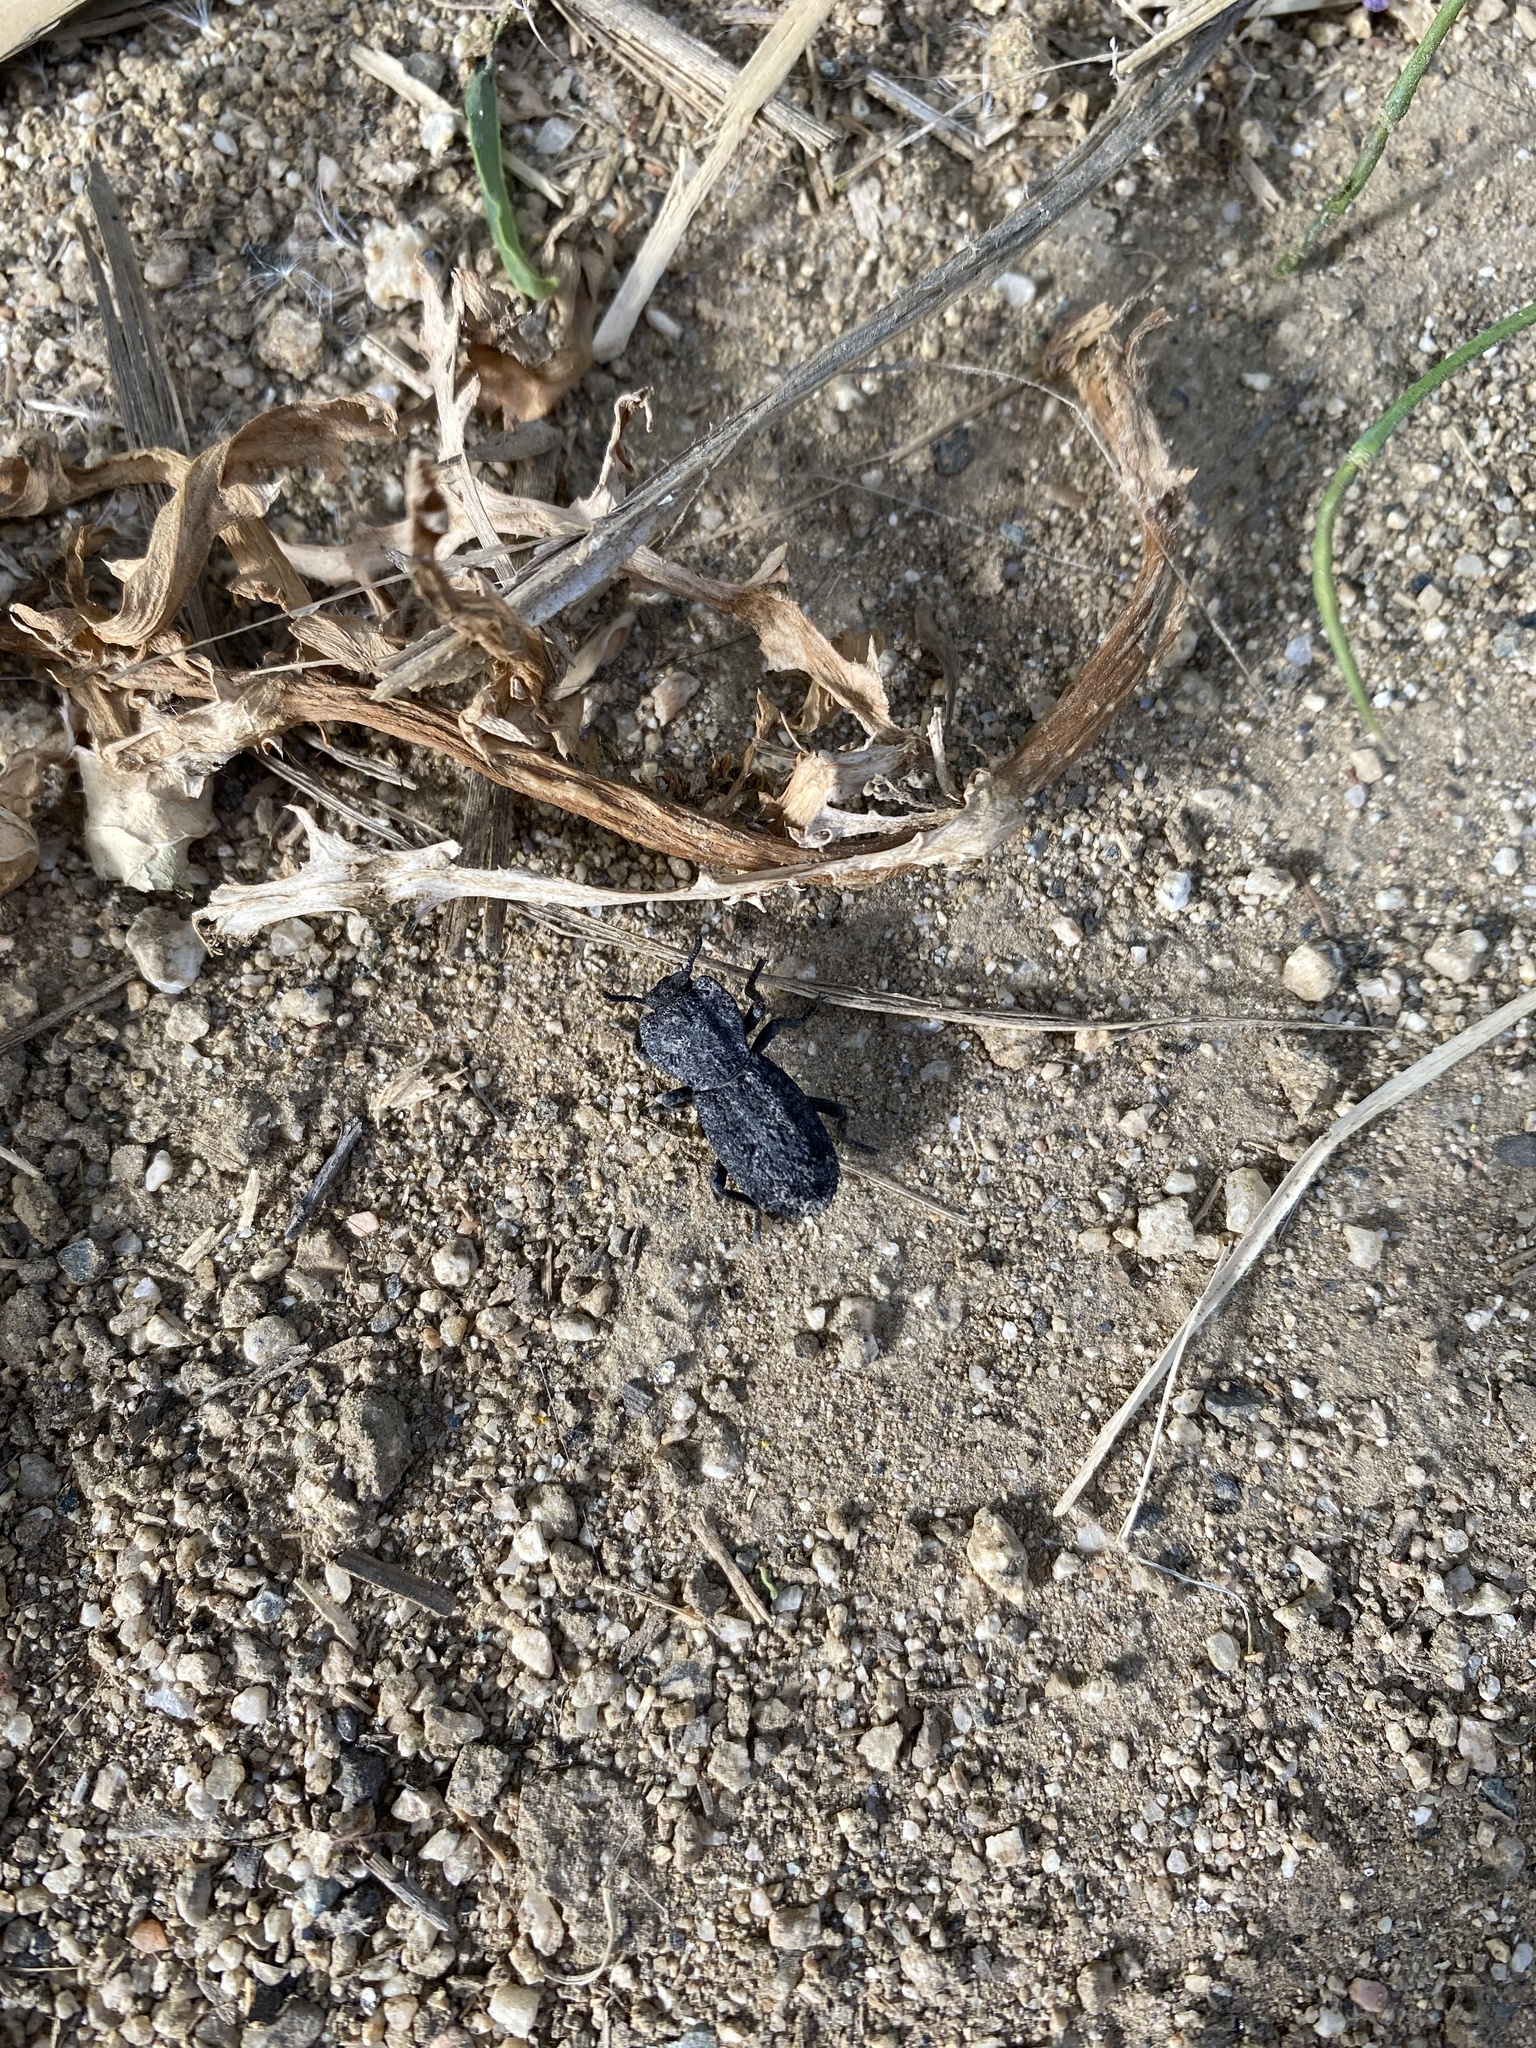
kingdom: Animalia
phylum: Arthropoda
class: Insecta
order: Coleoptera
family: Zopheridae
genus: Phloeodes
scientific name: Phloeodes diabolicus
